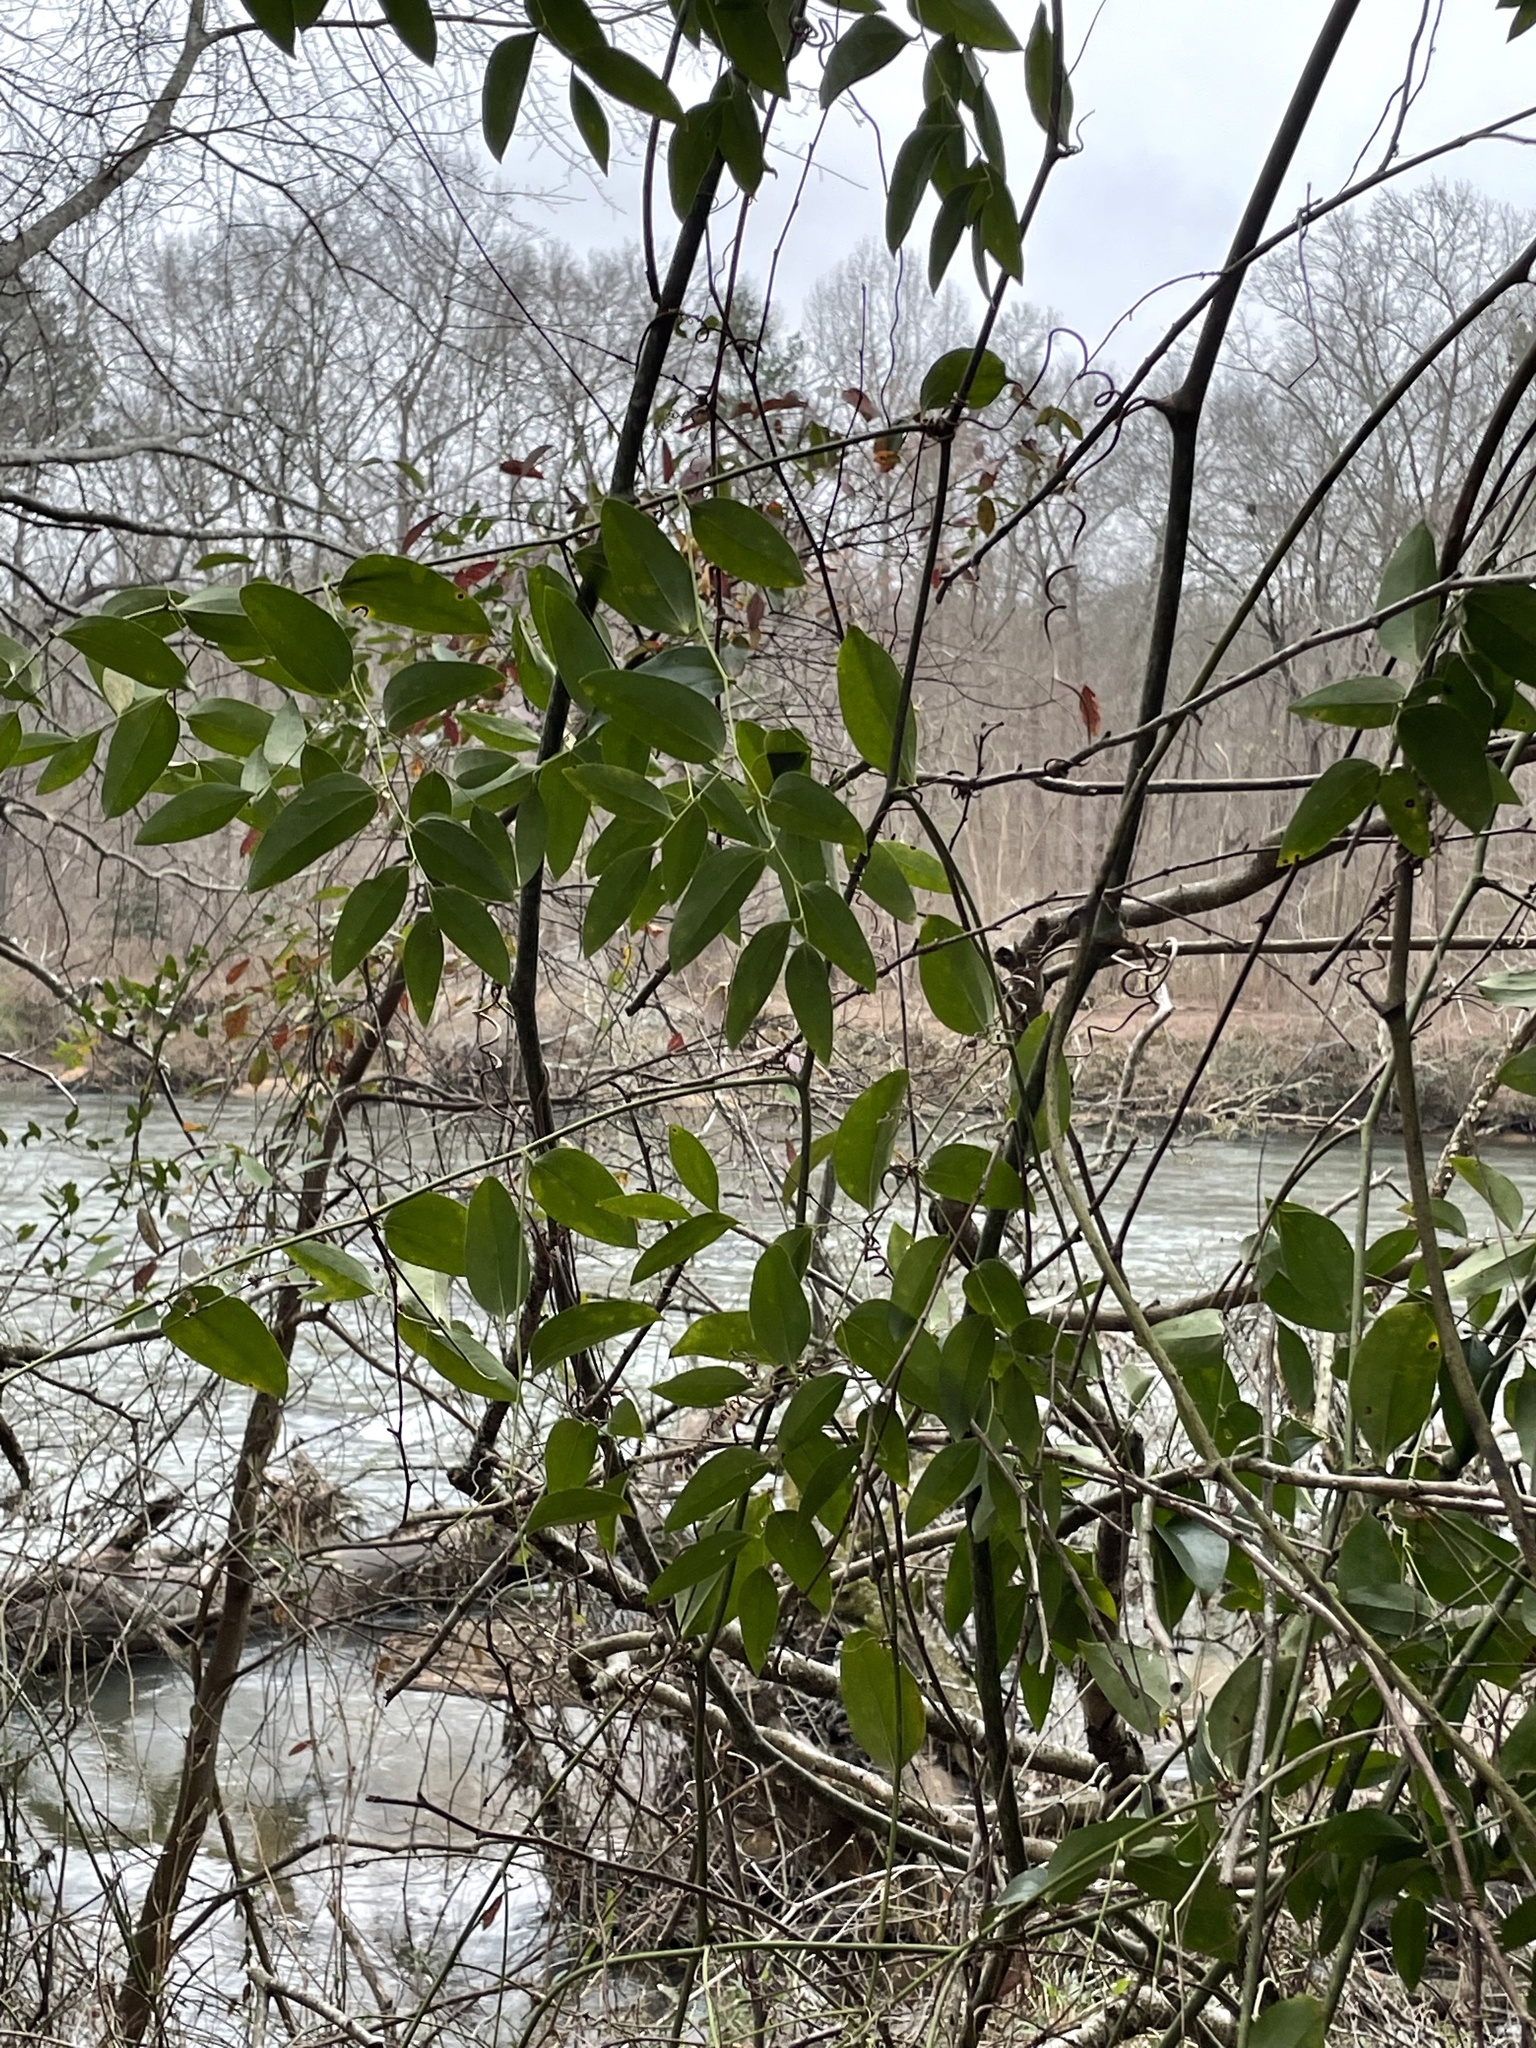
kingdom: Plantae
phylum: Tracheophyta
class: Liliopsida
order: Liliales
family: Smilacaceae
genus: Smilax
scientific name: Smilax maritima
